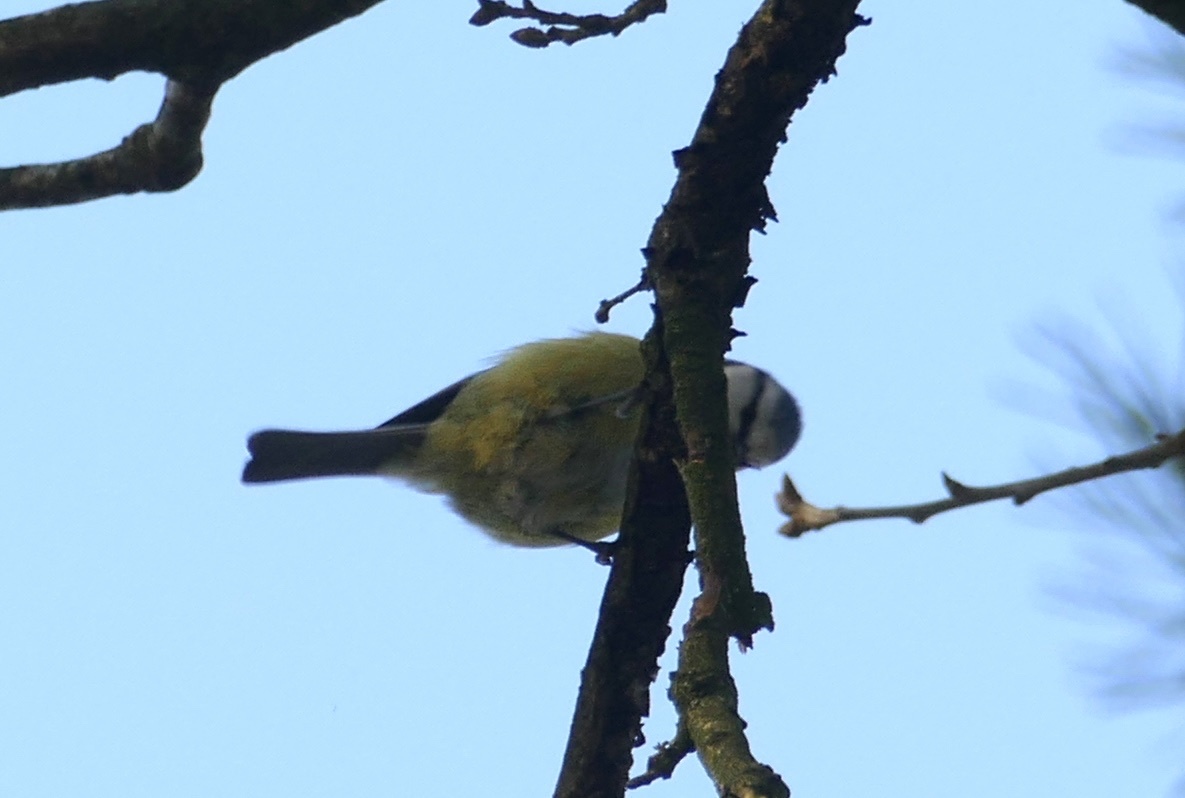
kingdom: Animalia
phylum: Chordata
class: Aves
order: Passeriformes
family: Paridae
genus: Cyanistes
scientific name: Cyanistes caeruleus
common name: Eurasian blue tit
